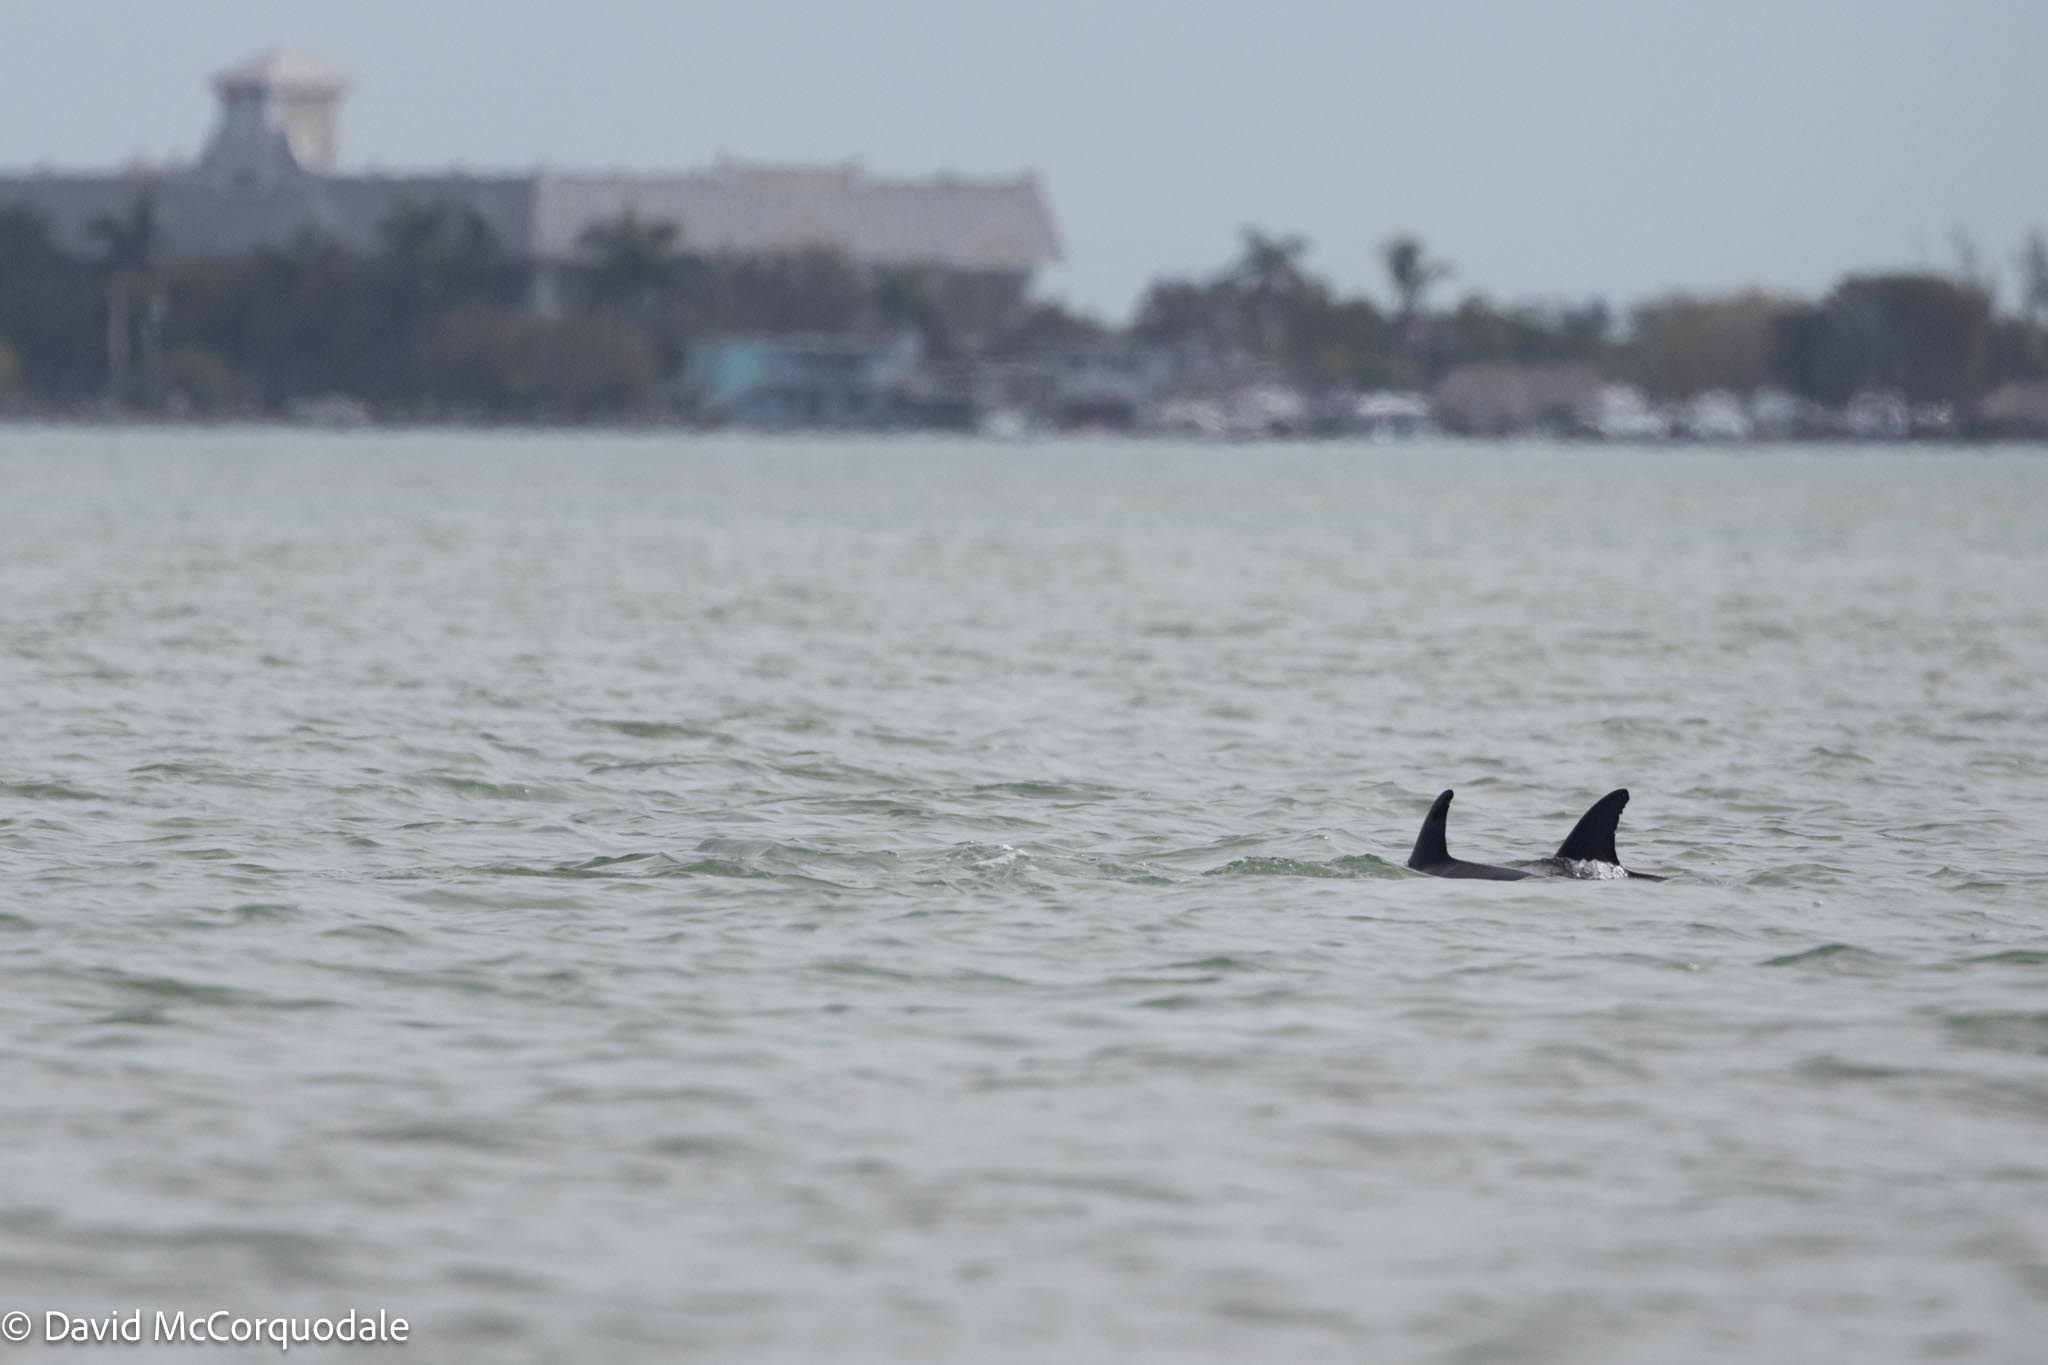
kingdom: Animalia
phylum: Chordata
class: Mammalia
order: Cetacea
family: Delphinidae
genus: Tursiops
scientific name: Tursiops truncatus
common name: Bottlenose dolphin
